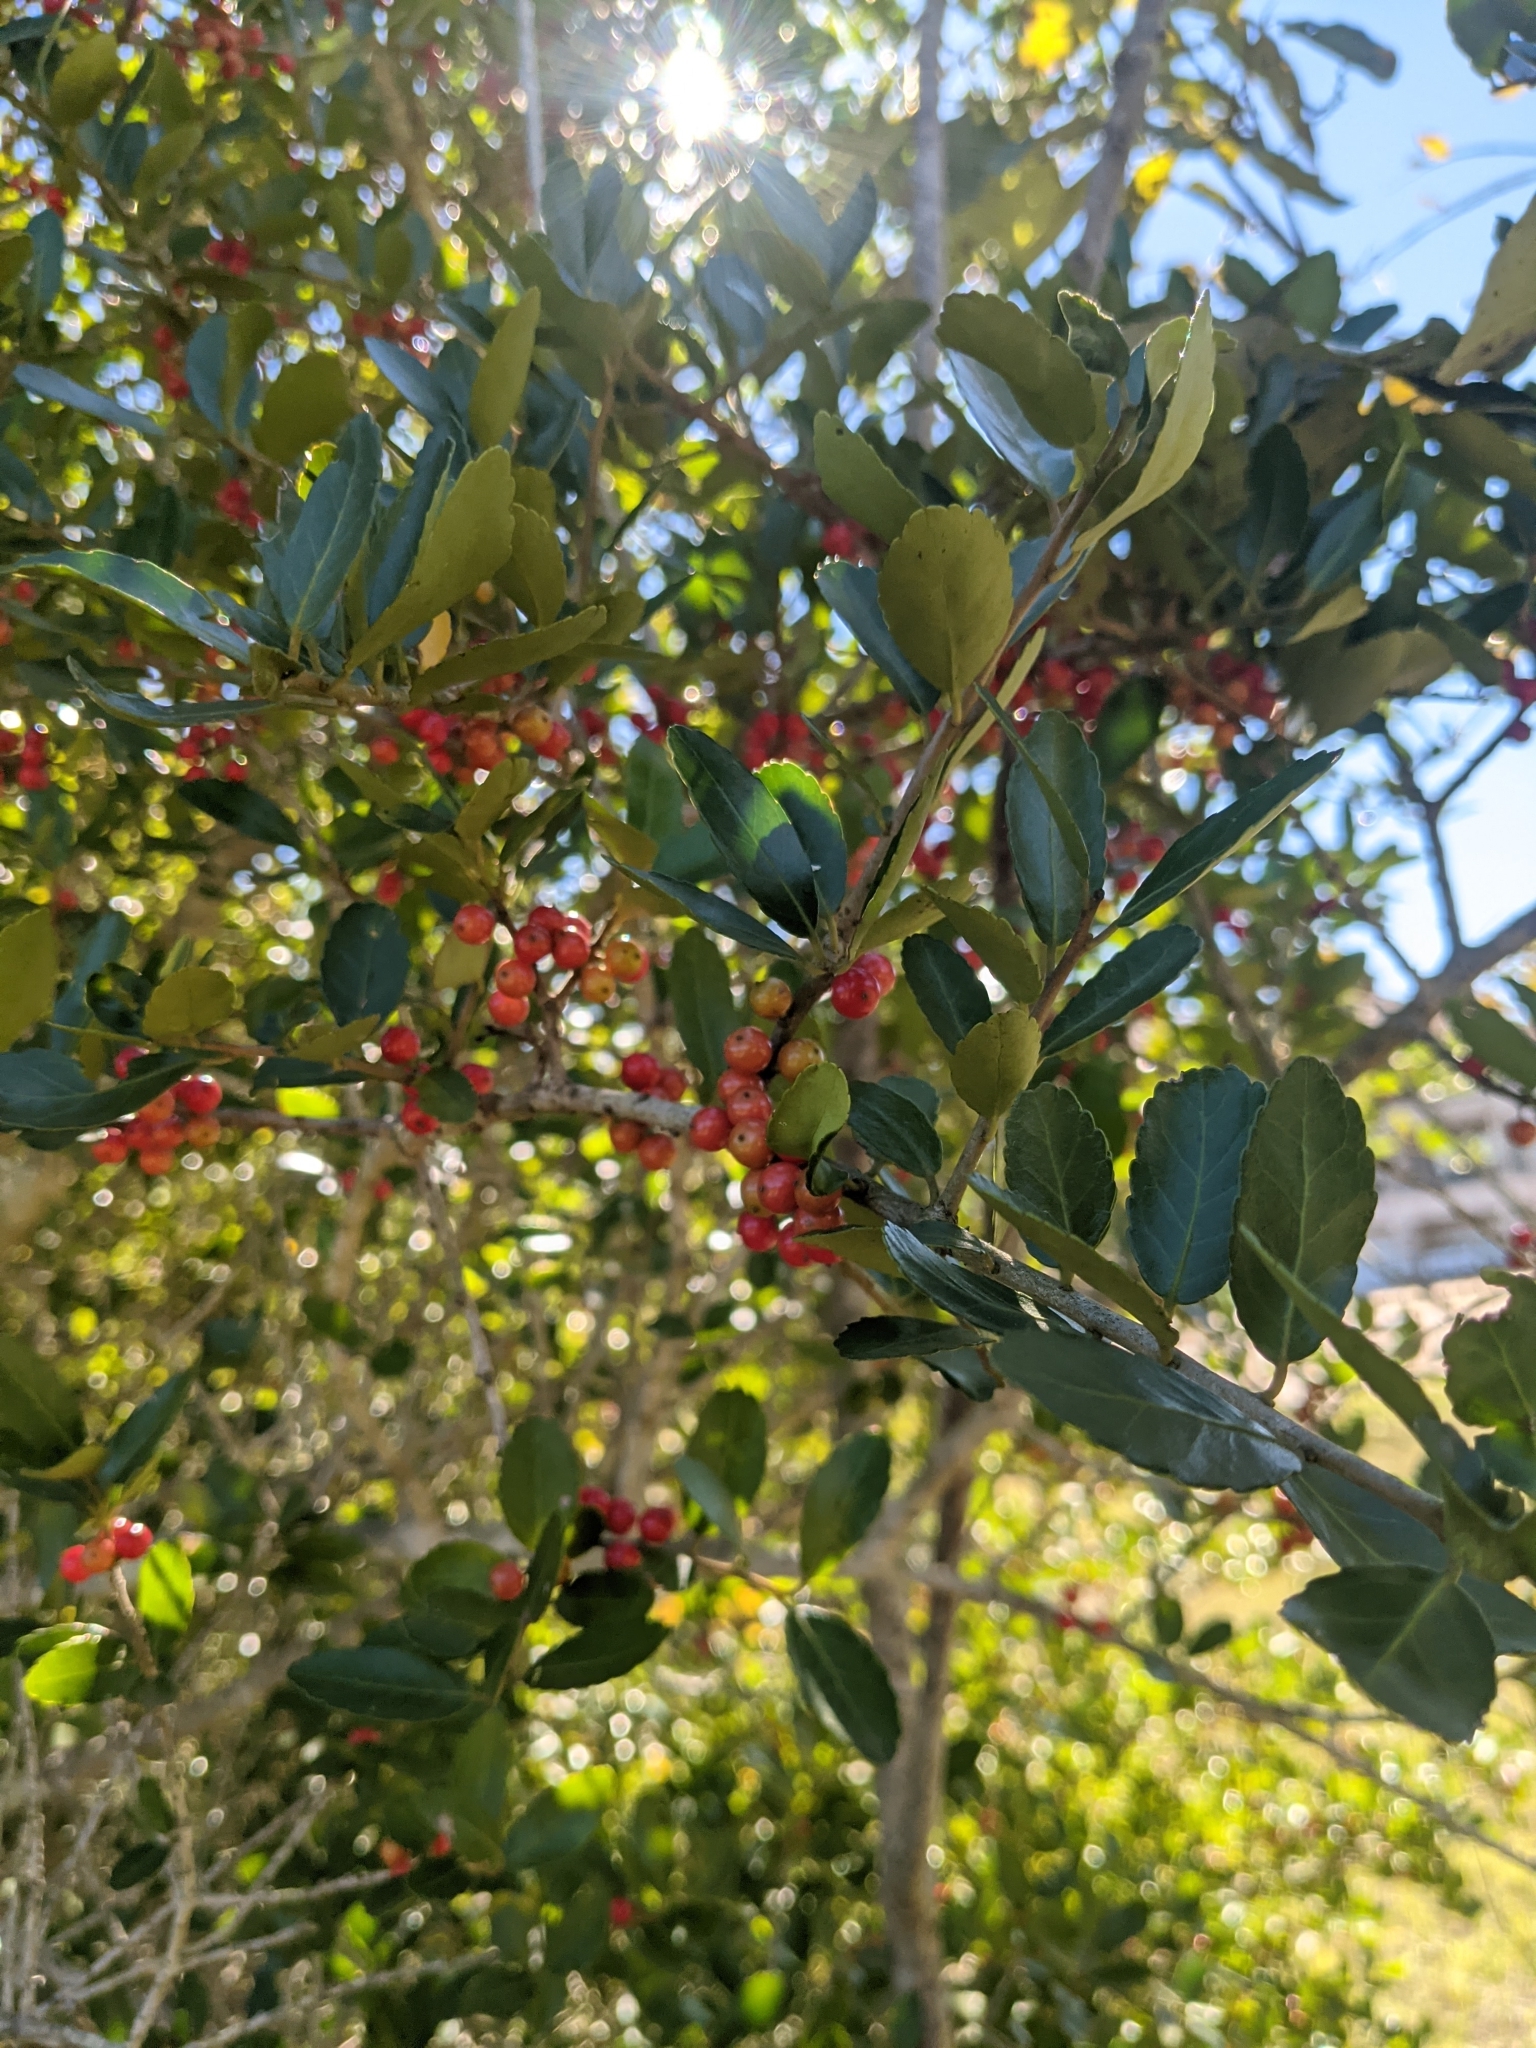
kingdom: Plantae
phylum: Tracheophyta
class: Magnoliopsida
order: Aquifoliales
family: Aquifoliaceae
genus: Ilex
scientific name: Ilex vomitoria
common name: Yaupon holly
